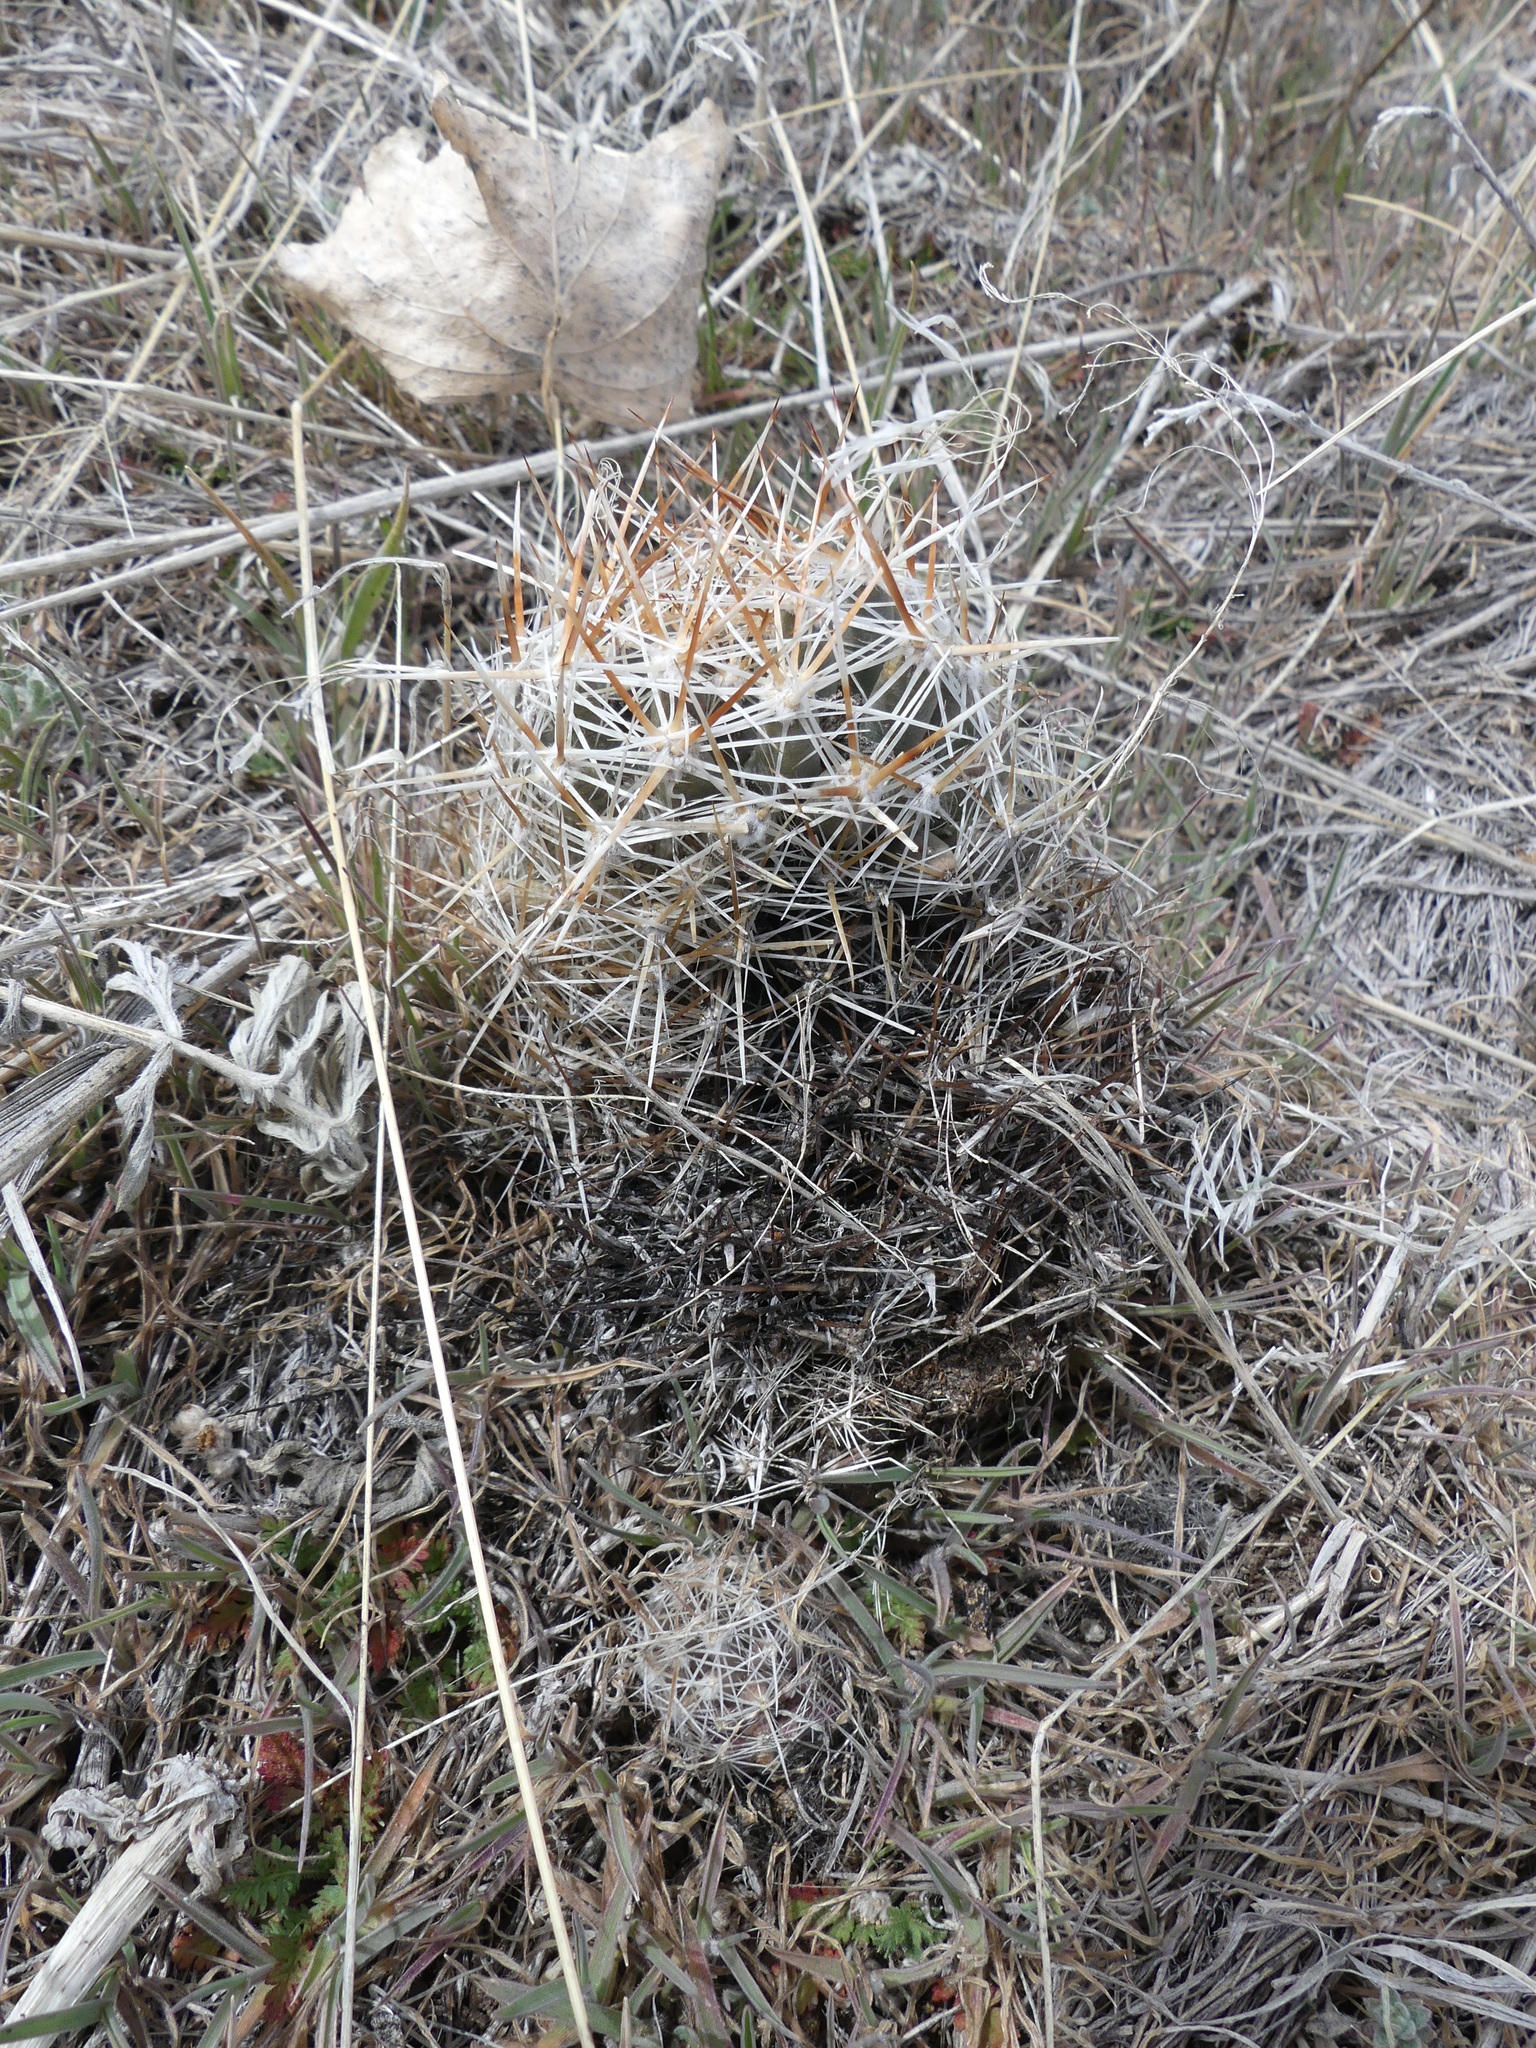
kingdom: Plantae
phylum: Tracheophyta
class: Magnoliopsida
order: Caryophyllales
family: Cactaceae
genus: Pelecyphora
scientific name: Pelecyphora vivipara
